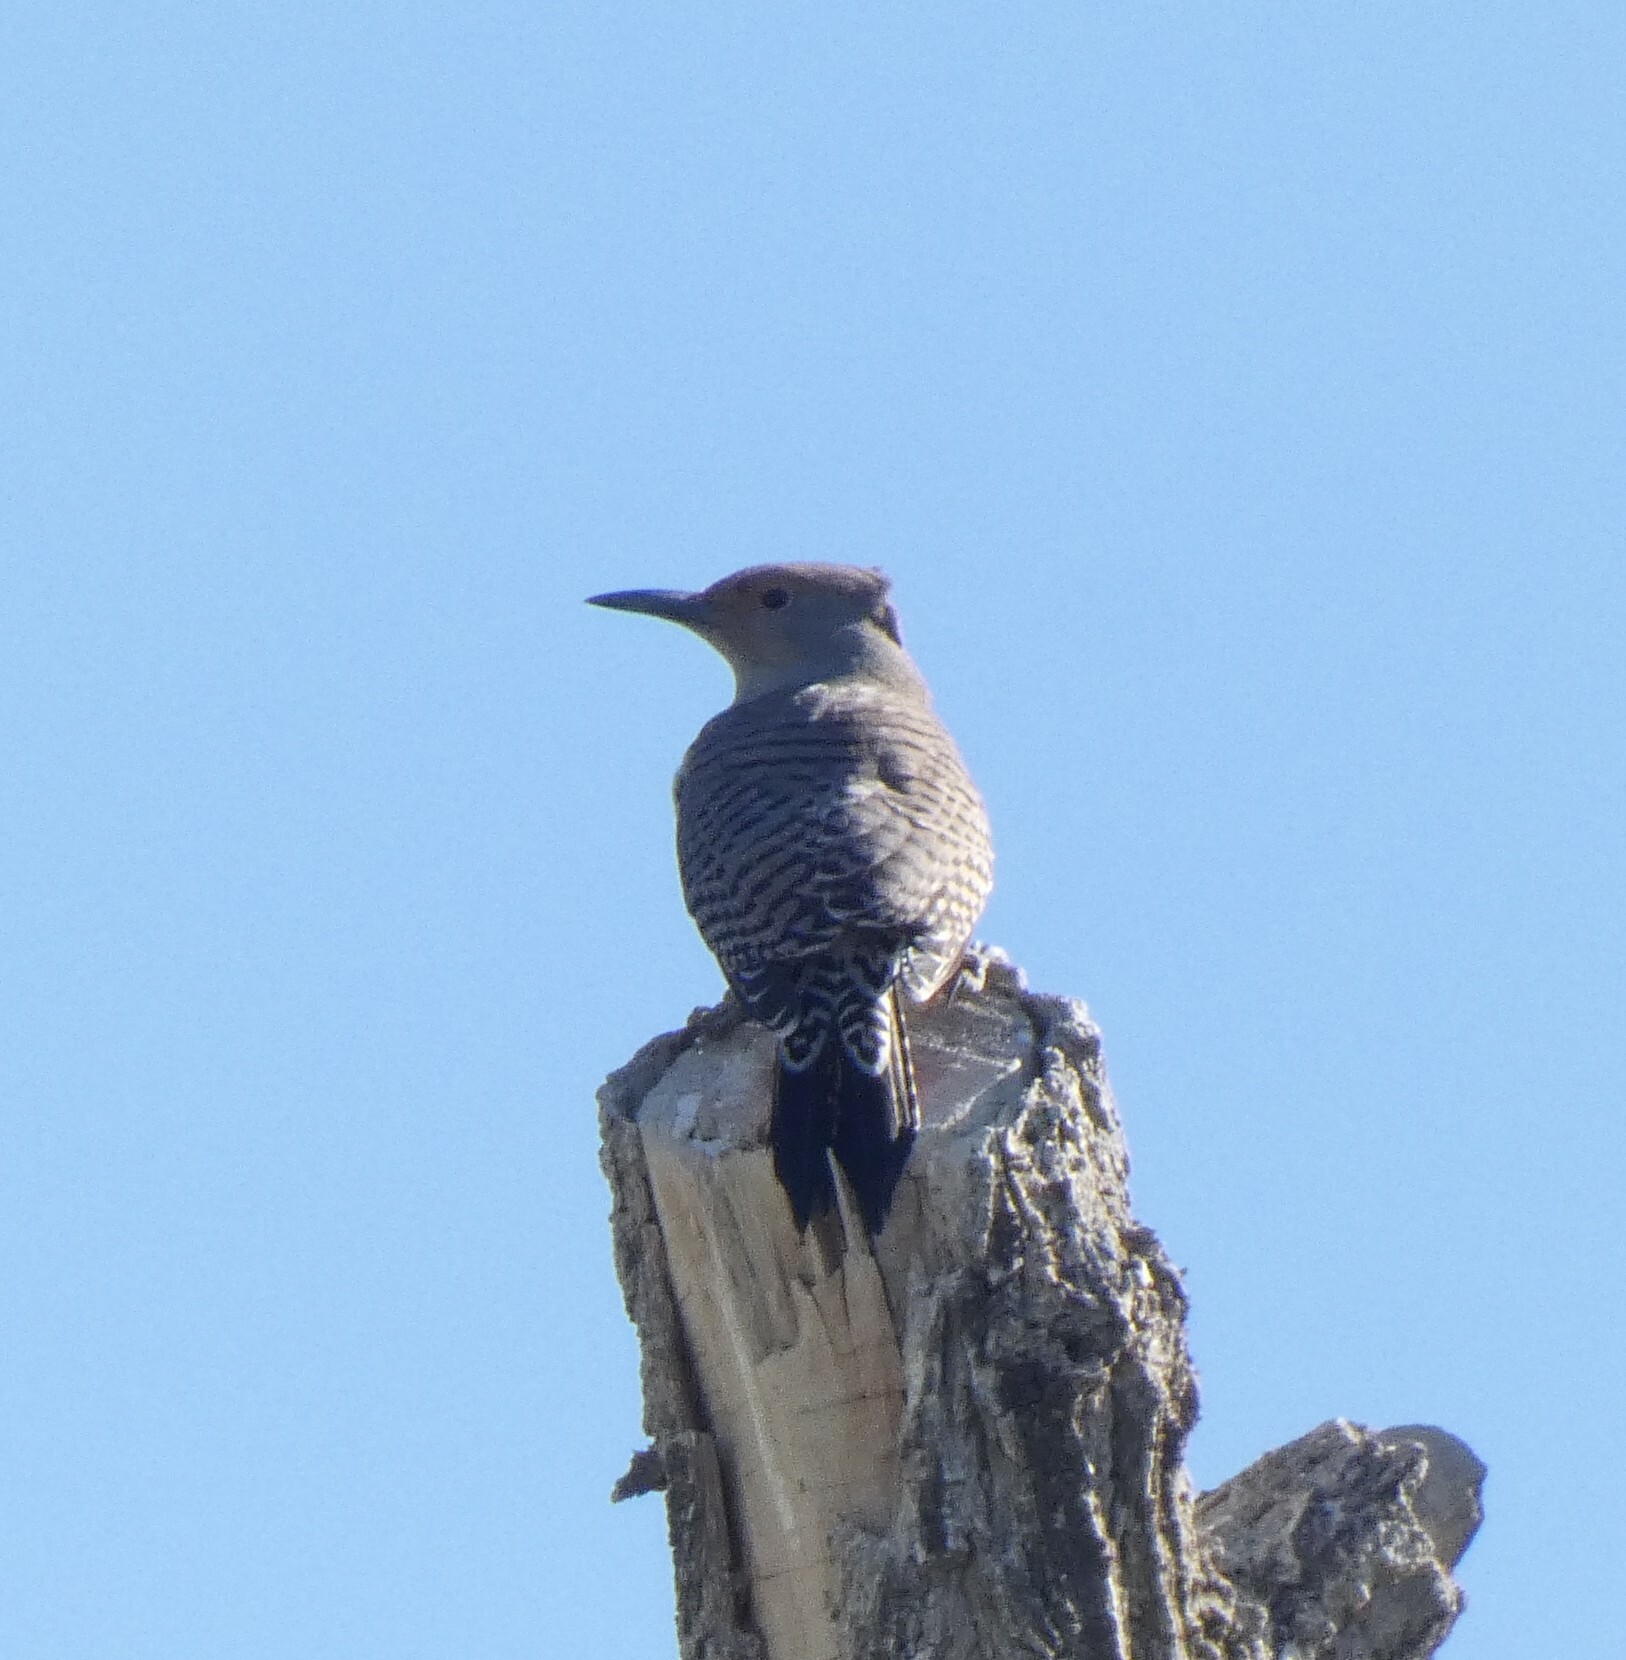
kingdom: Animalia
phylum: Chordata
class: Aves
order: Piciformes
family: Picidae
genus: Colaptes
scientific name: Colaptes auratus
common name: Northern flicker
